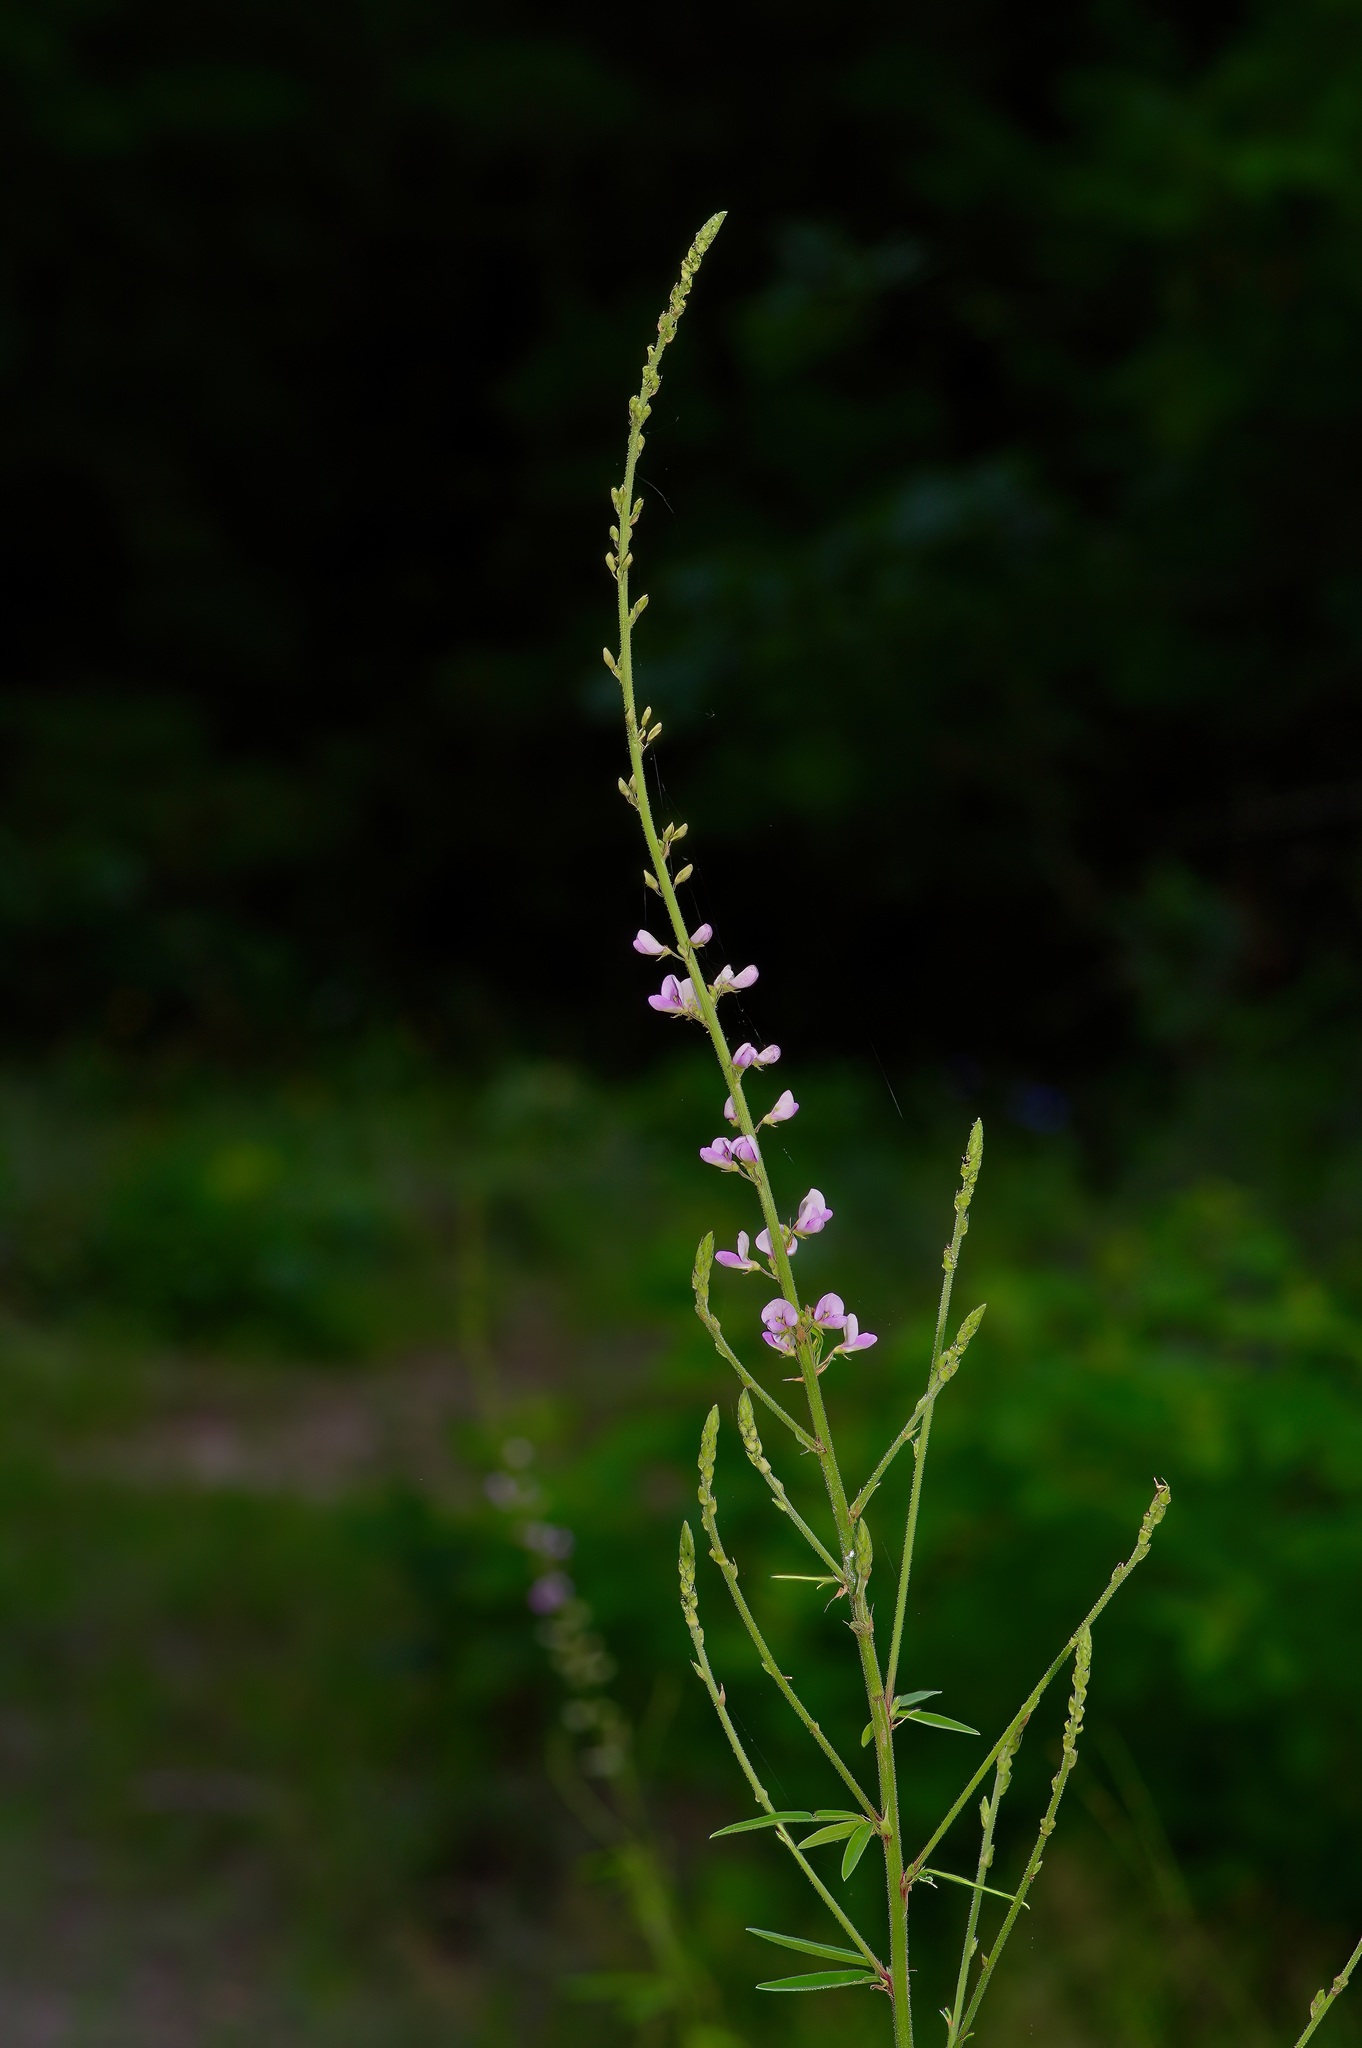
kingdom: Plantae
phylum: Tracheophyta
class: Magnoliopsida
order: Fabales
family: Fabaceae
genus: Desmodium
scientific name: Desmodium sessilifolium
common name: Sessile tick-clover
